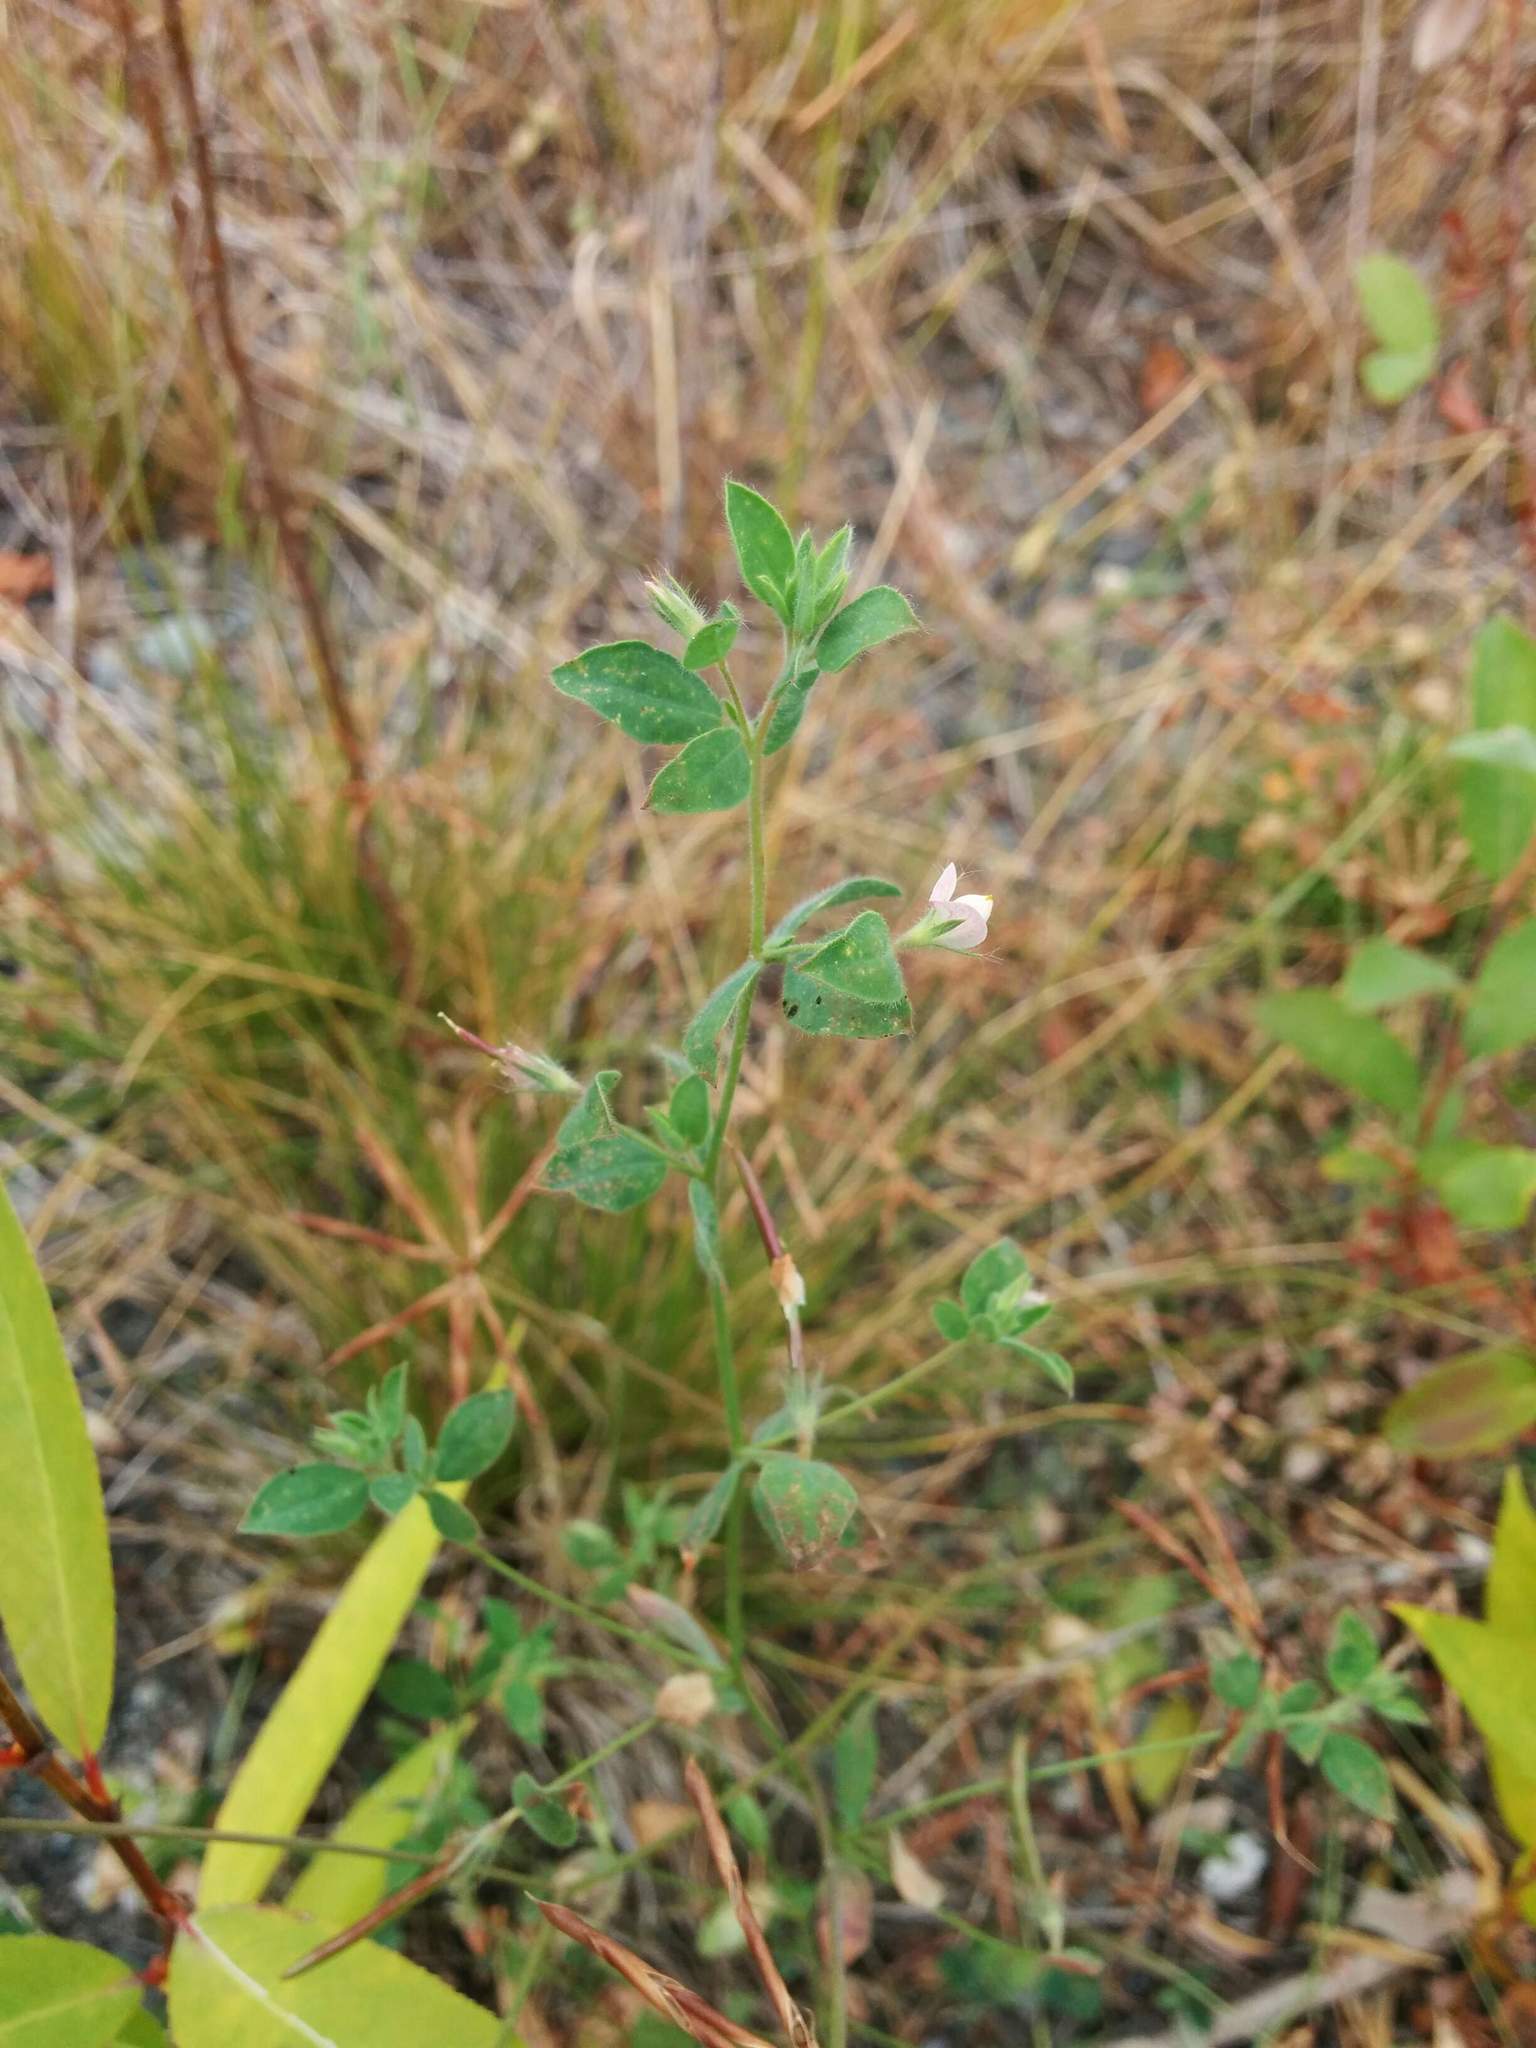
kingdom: Plantae
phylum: Tracheophyta
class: Magnoliopsida
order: Fabales
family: Fabaceae
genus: Acmispon
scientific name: Acmispon americanus
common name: American bird's-foot trefoil
